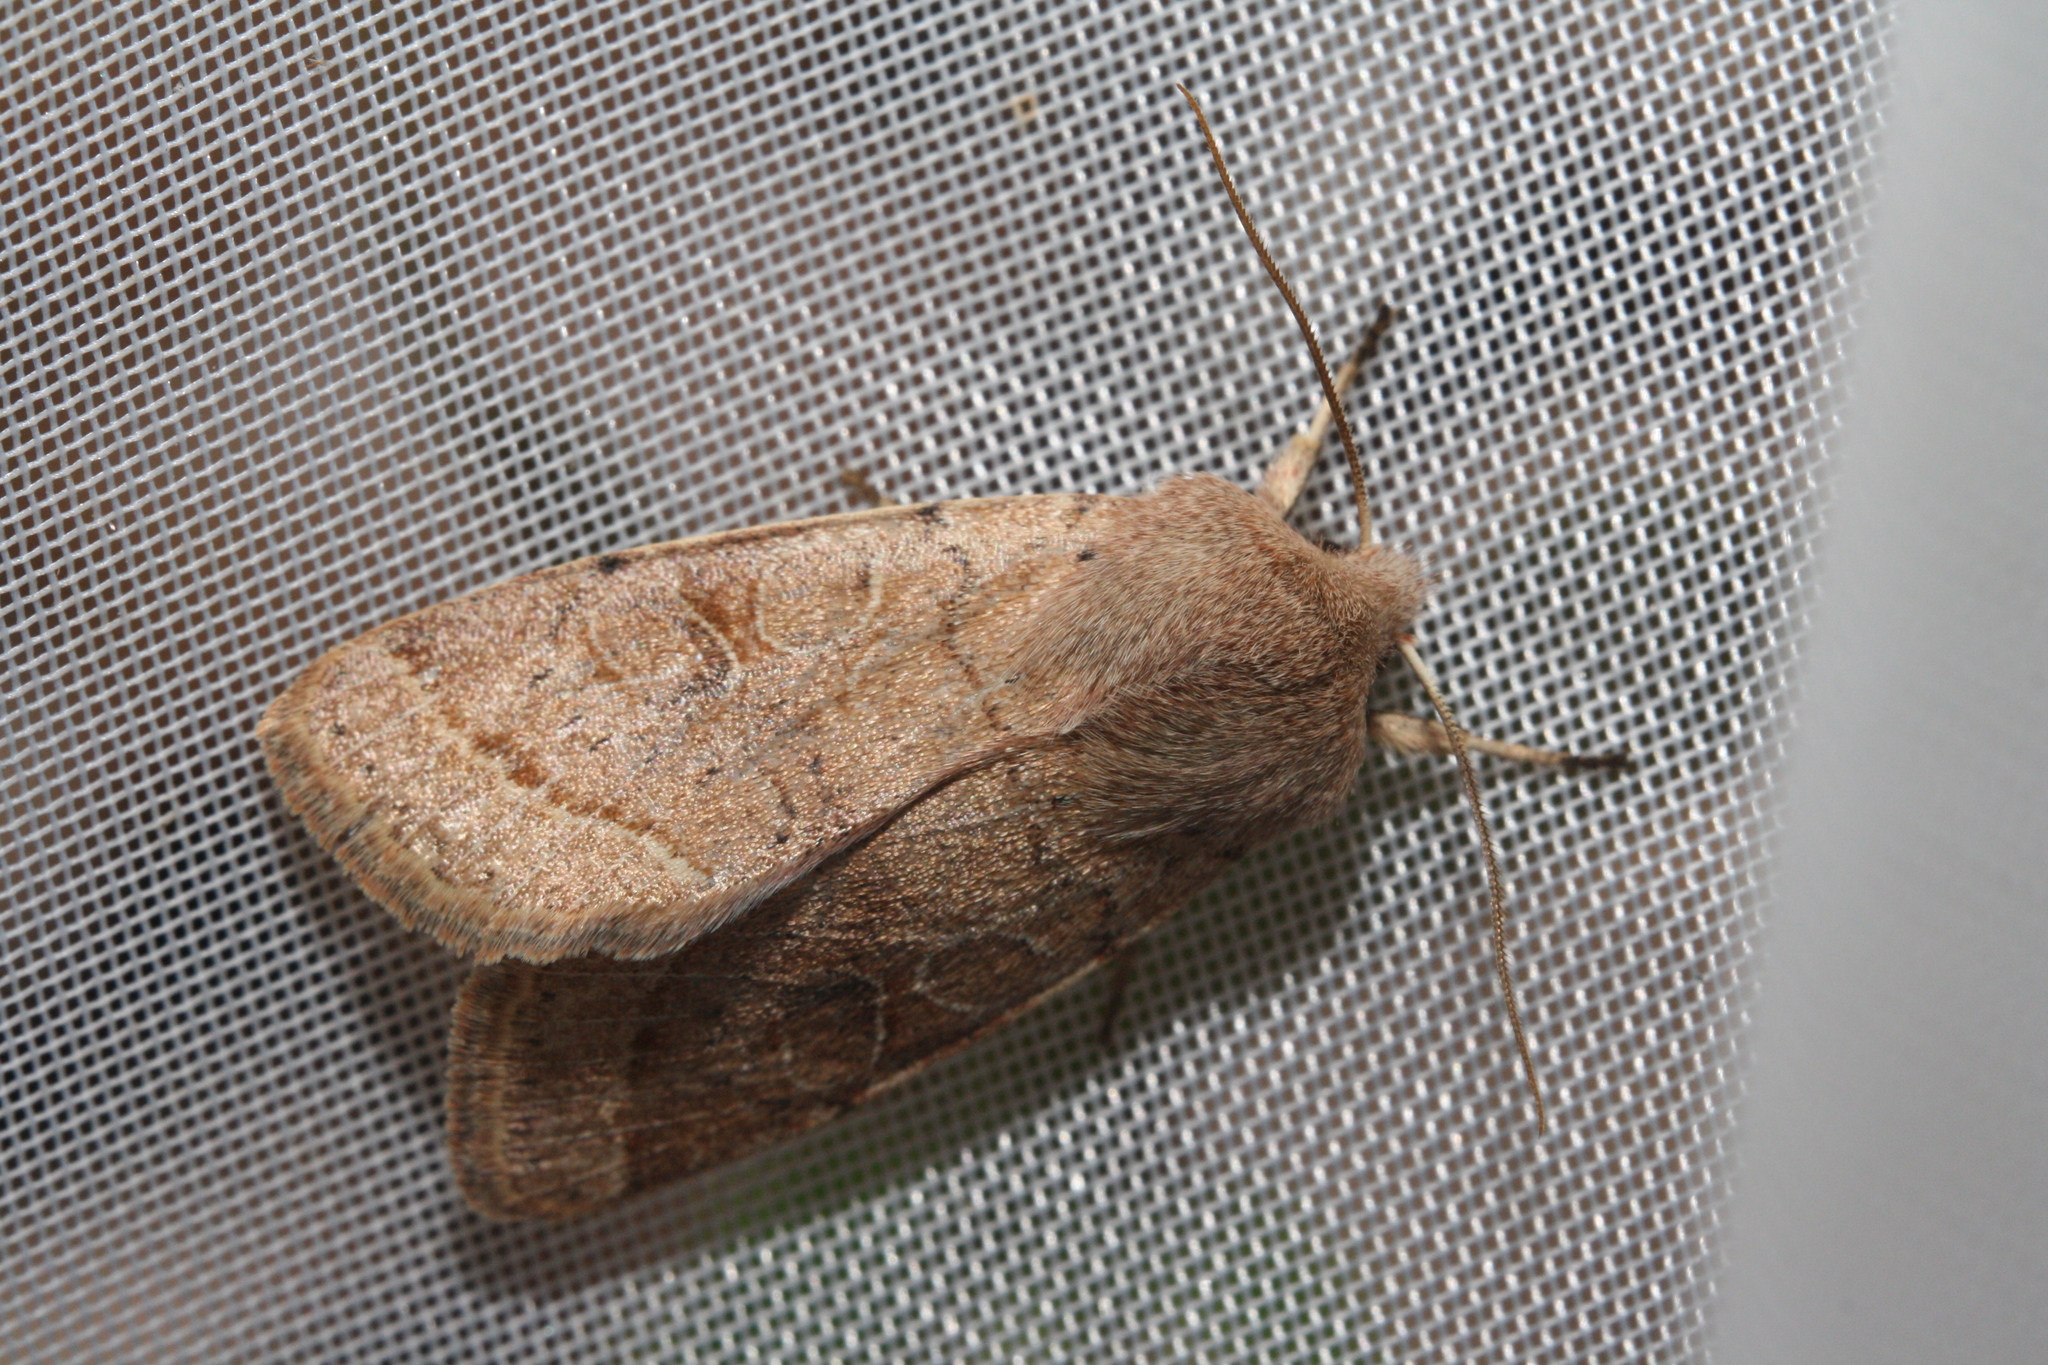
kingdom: Animalia
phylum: Arthropoda
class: Insecta
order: Lepidoptera
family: Noctuidae
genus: Orthosia
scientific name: Orthosia cerasi
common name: Common quaker
